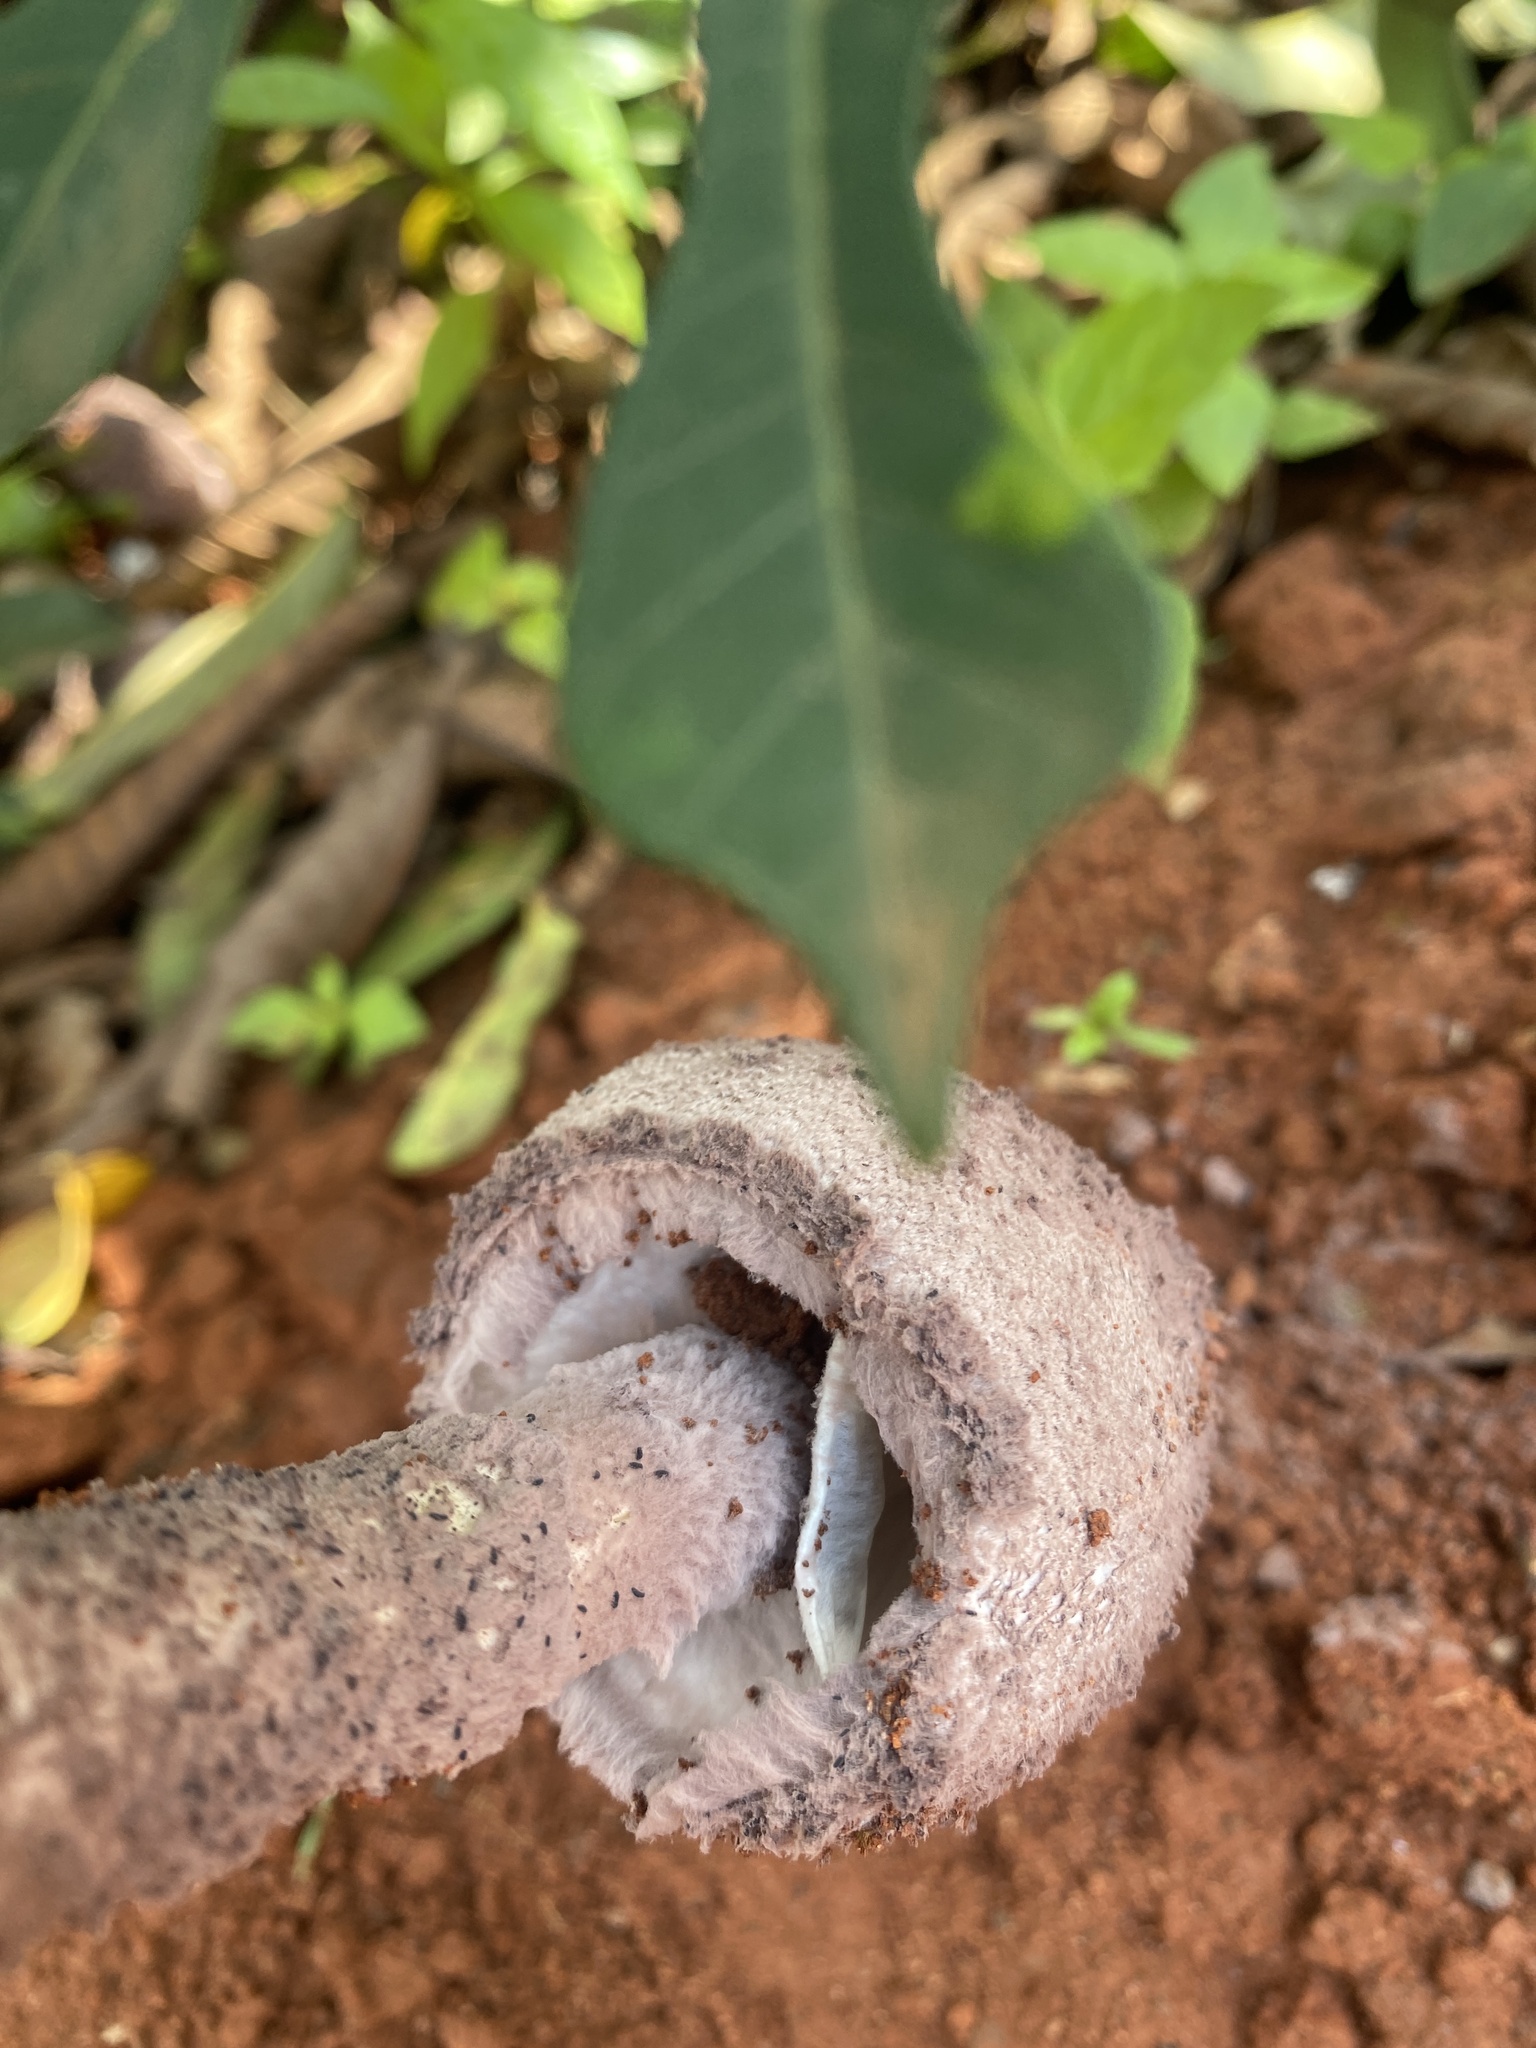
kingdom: Fungi
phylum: Basidiomycota
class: Agaricomycetes
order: Agaricales
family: Agaricaceae
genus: Coniolepiota
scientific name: Coniolepiota spongodes
